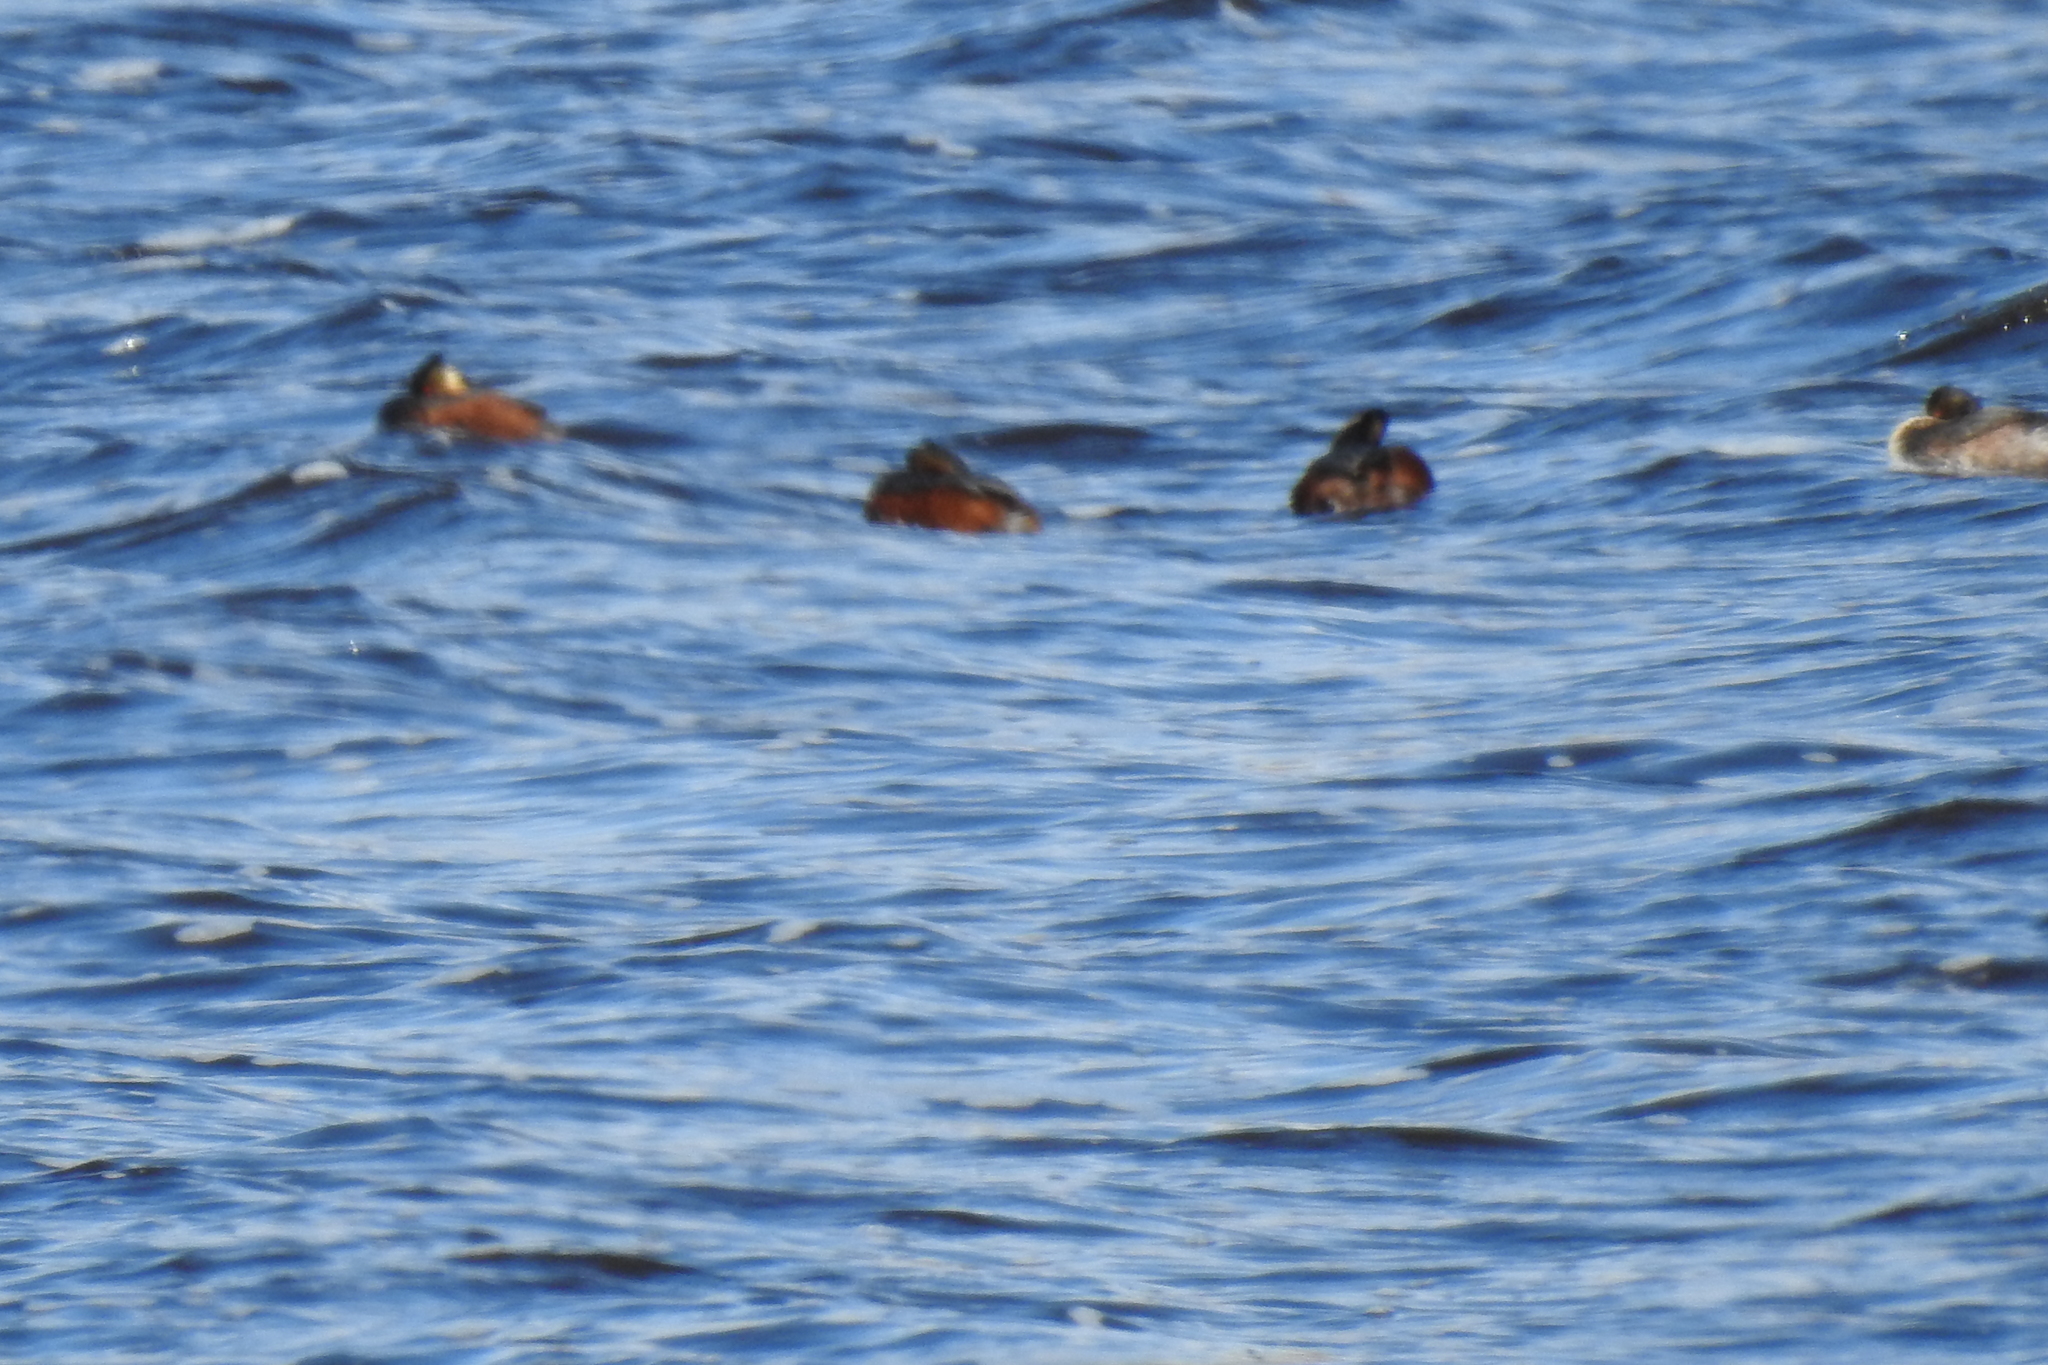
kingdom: Animalia
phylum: Chordata
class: Aves
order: Podicipediformes
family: Podicipedidae
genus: Podiceps
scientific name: Podiceps nigricollis
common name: Black-necked grebe
